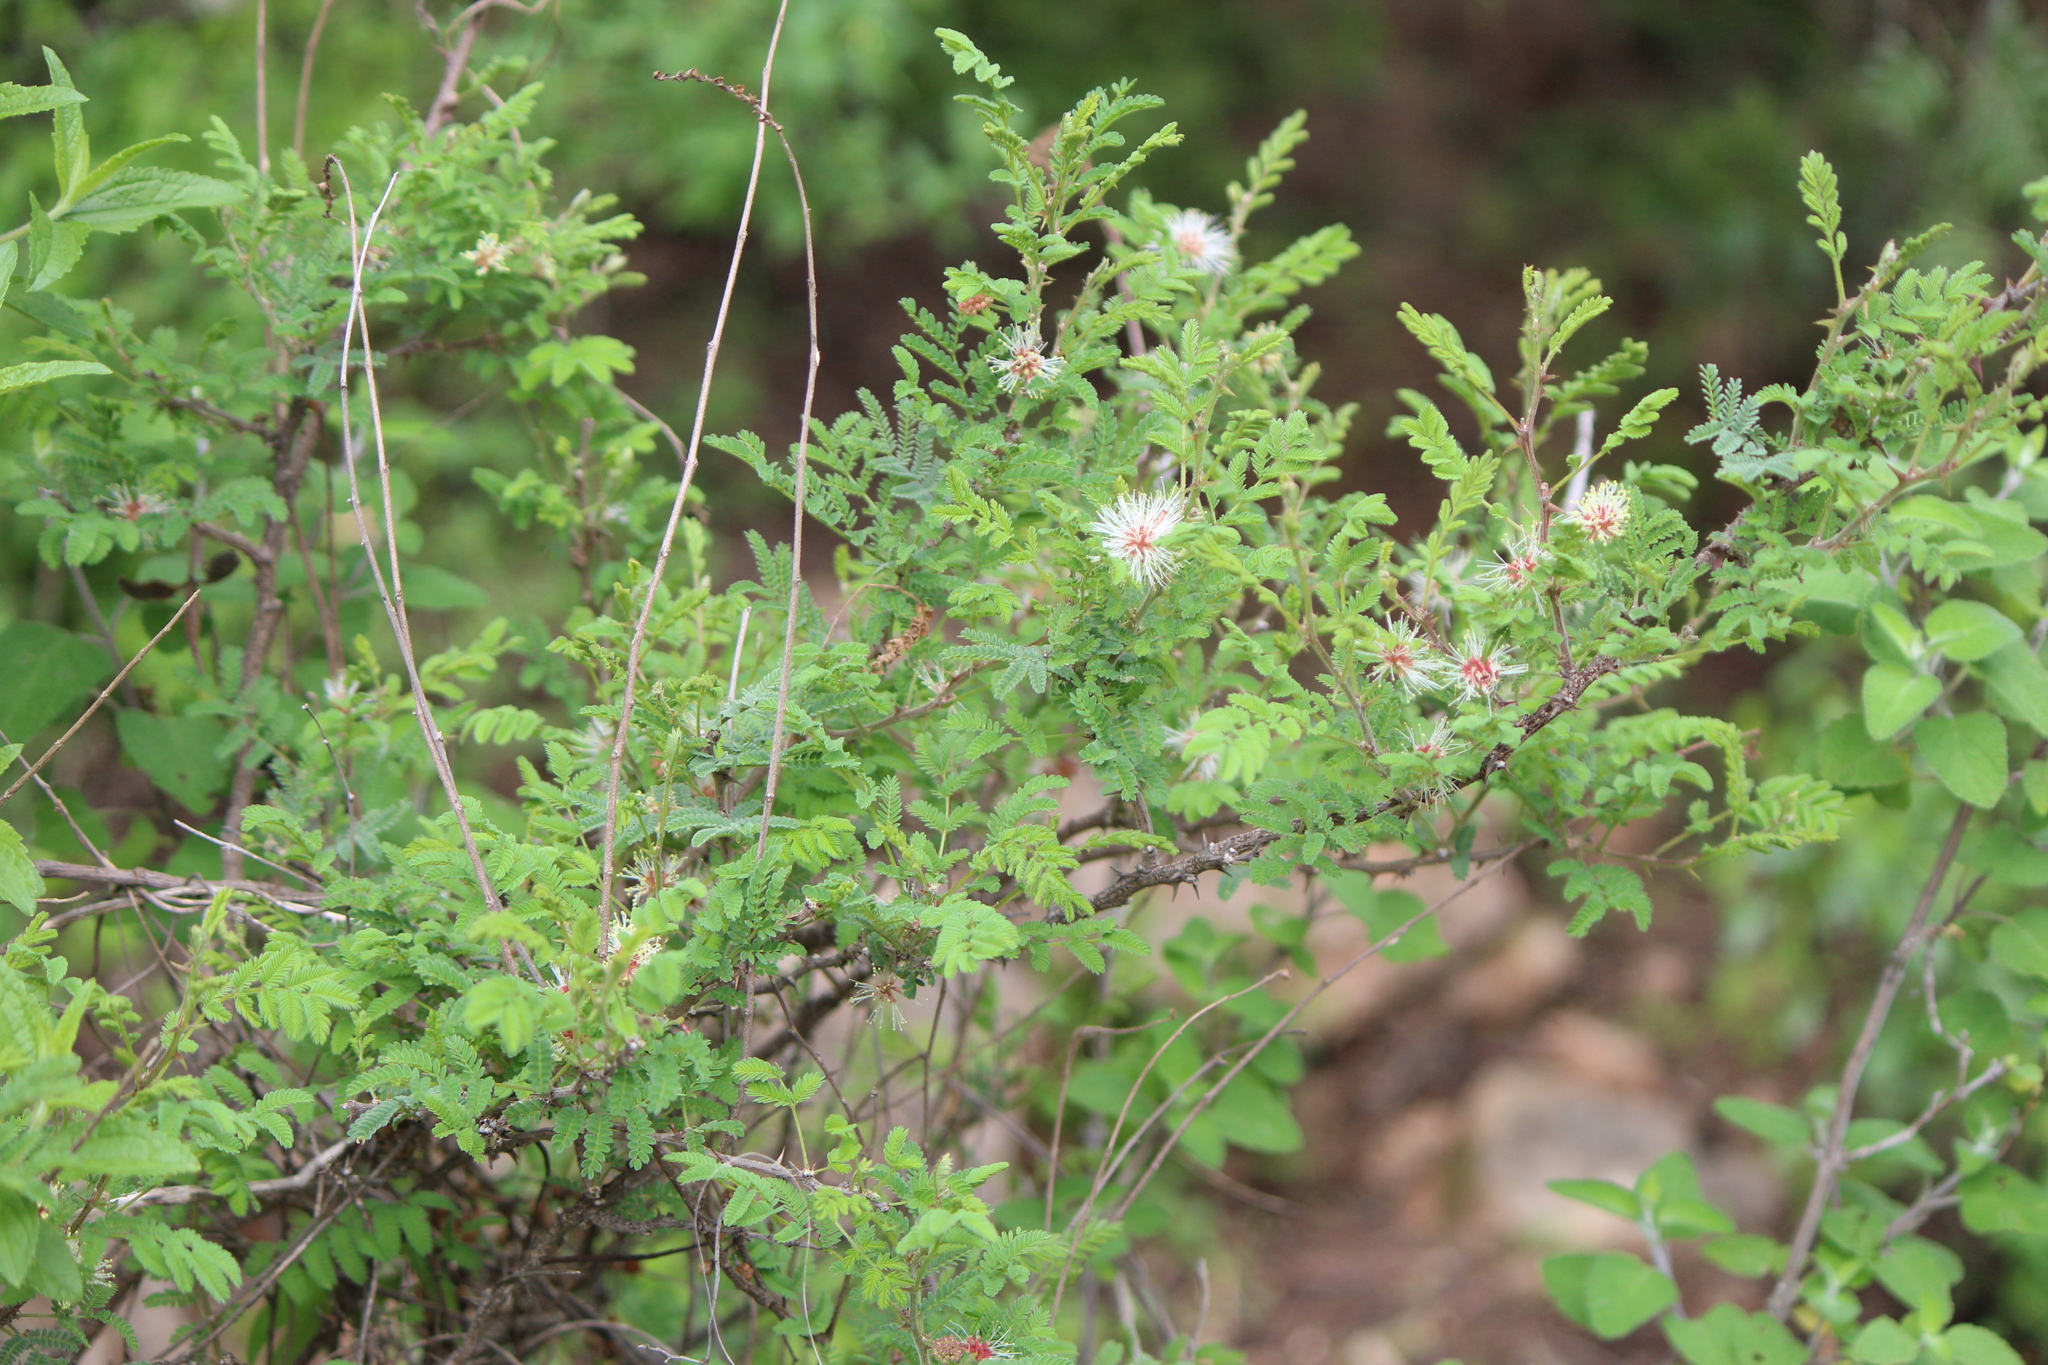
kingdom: Plantae
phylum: Tracheophyta
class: Magnoliopsida
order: Fabales
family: Fabaceae
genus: Mimosa
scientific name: Mimosa aculeaticarpa
